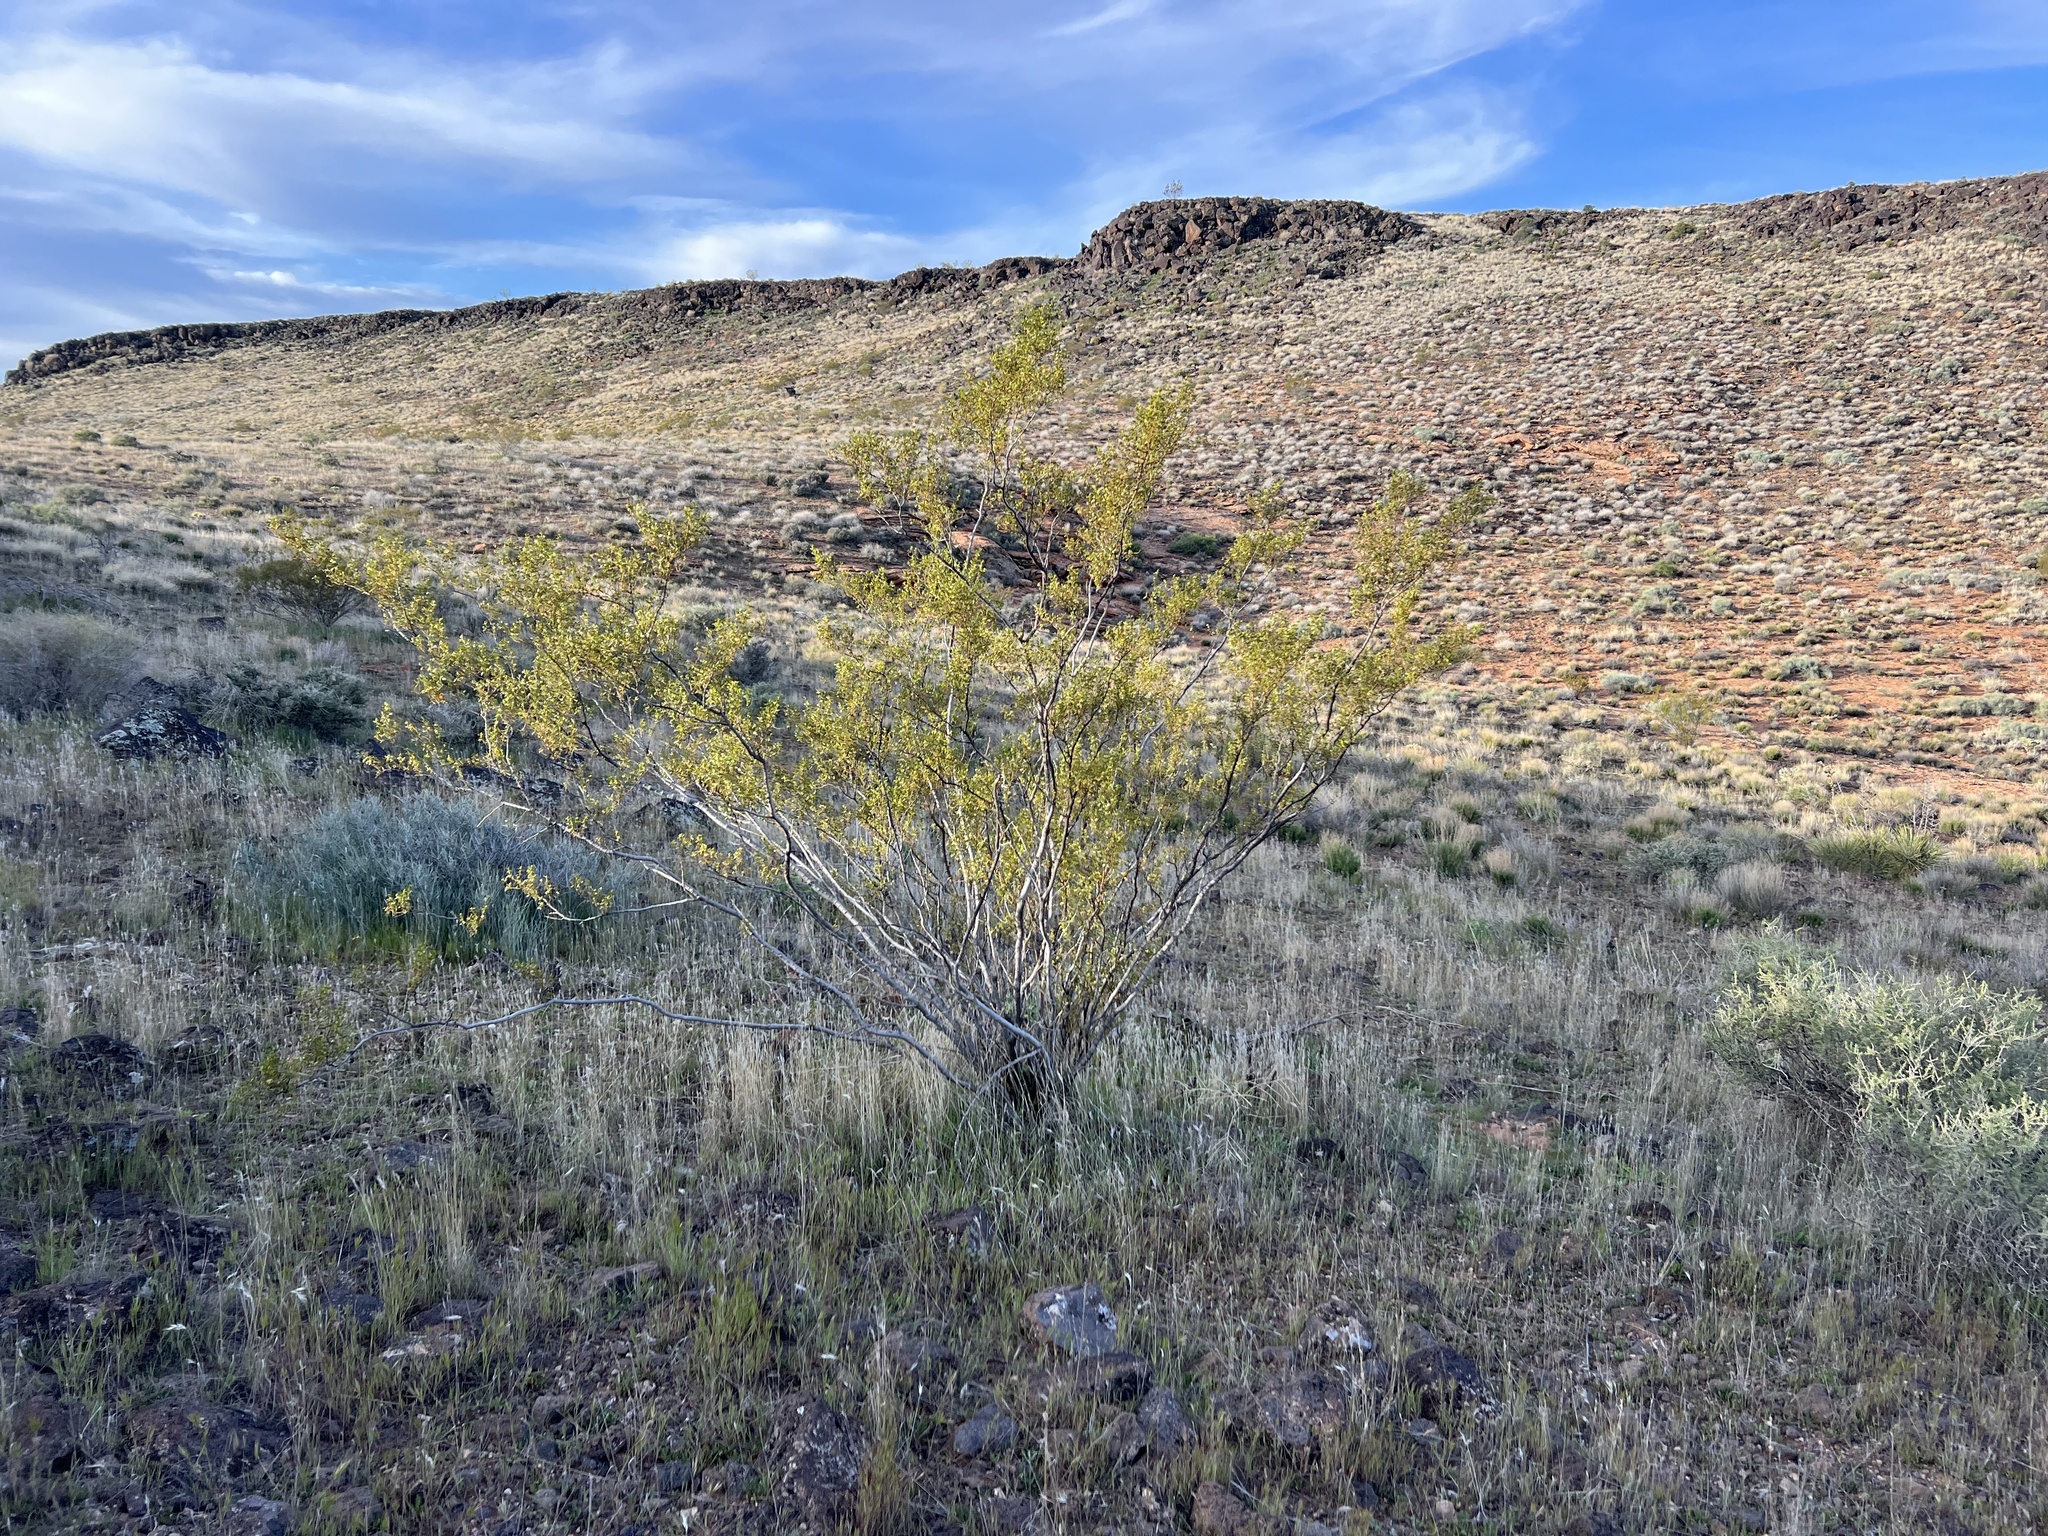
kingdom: Plantae
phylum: Tracheophyta
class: Magnoliopsida
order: Zygophyllales
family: Zygophyllaceae
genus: Larrea
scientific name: Larrea tridentata
